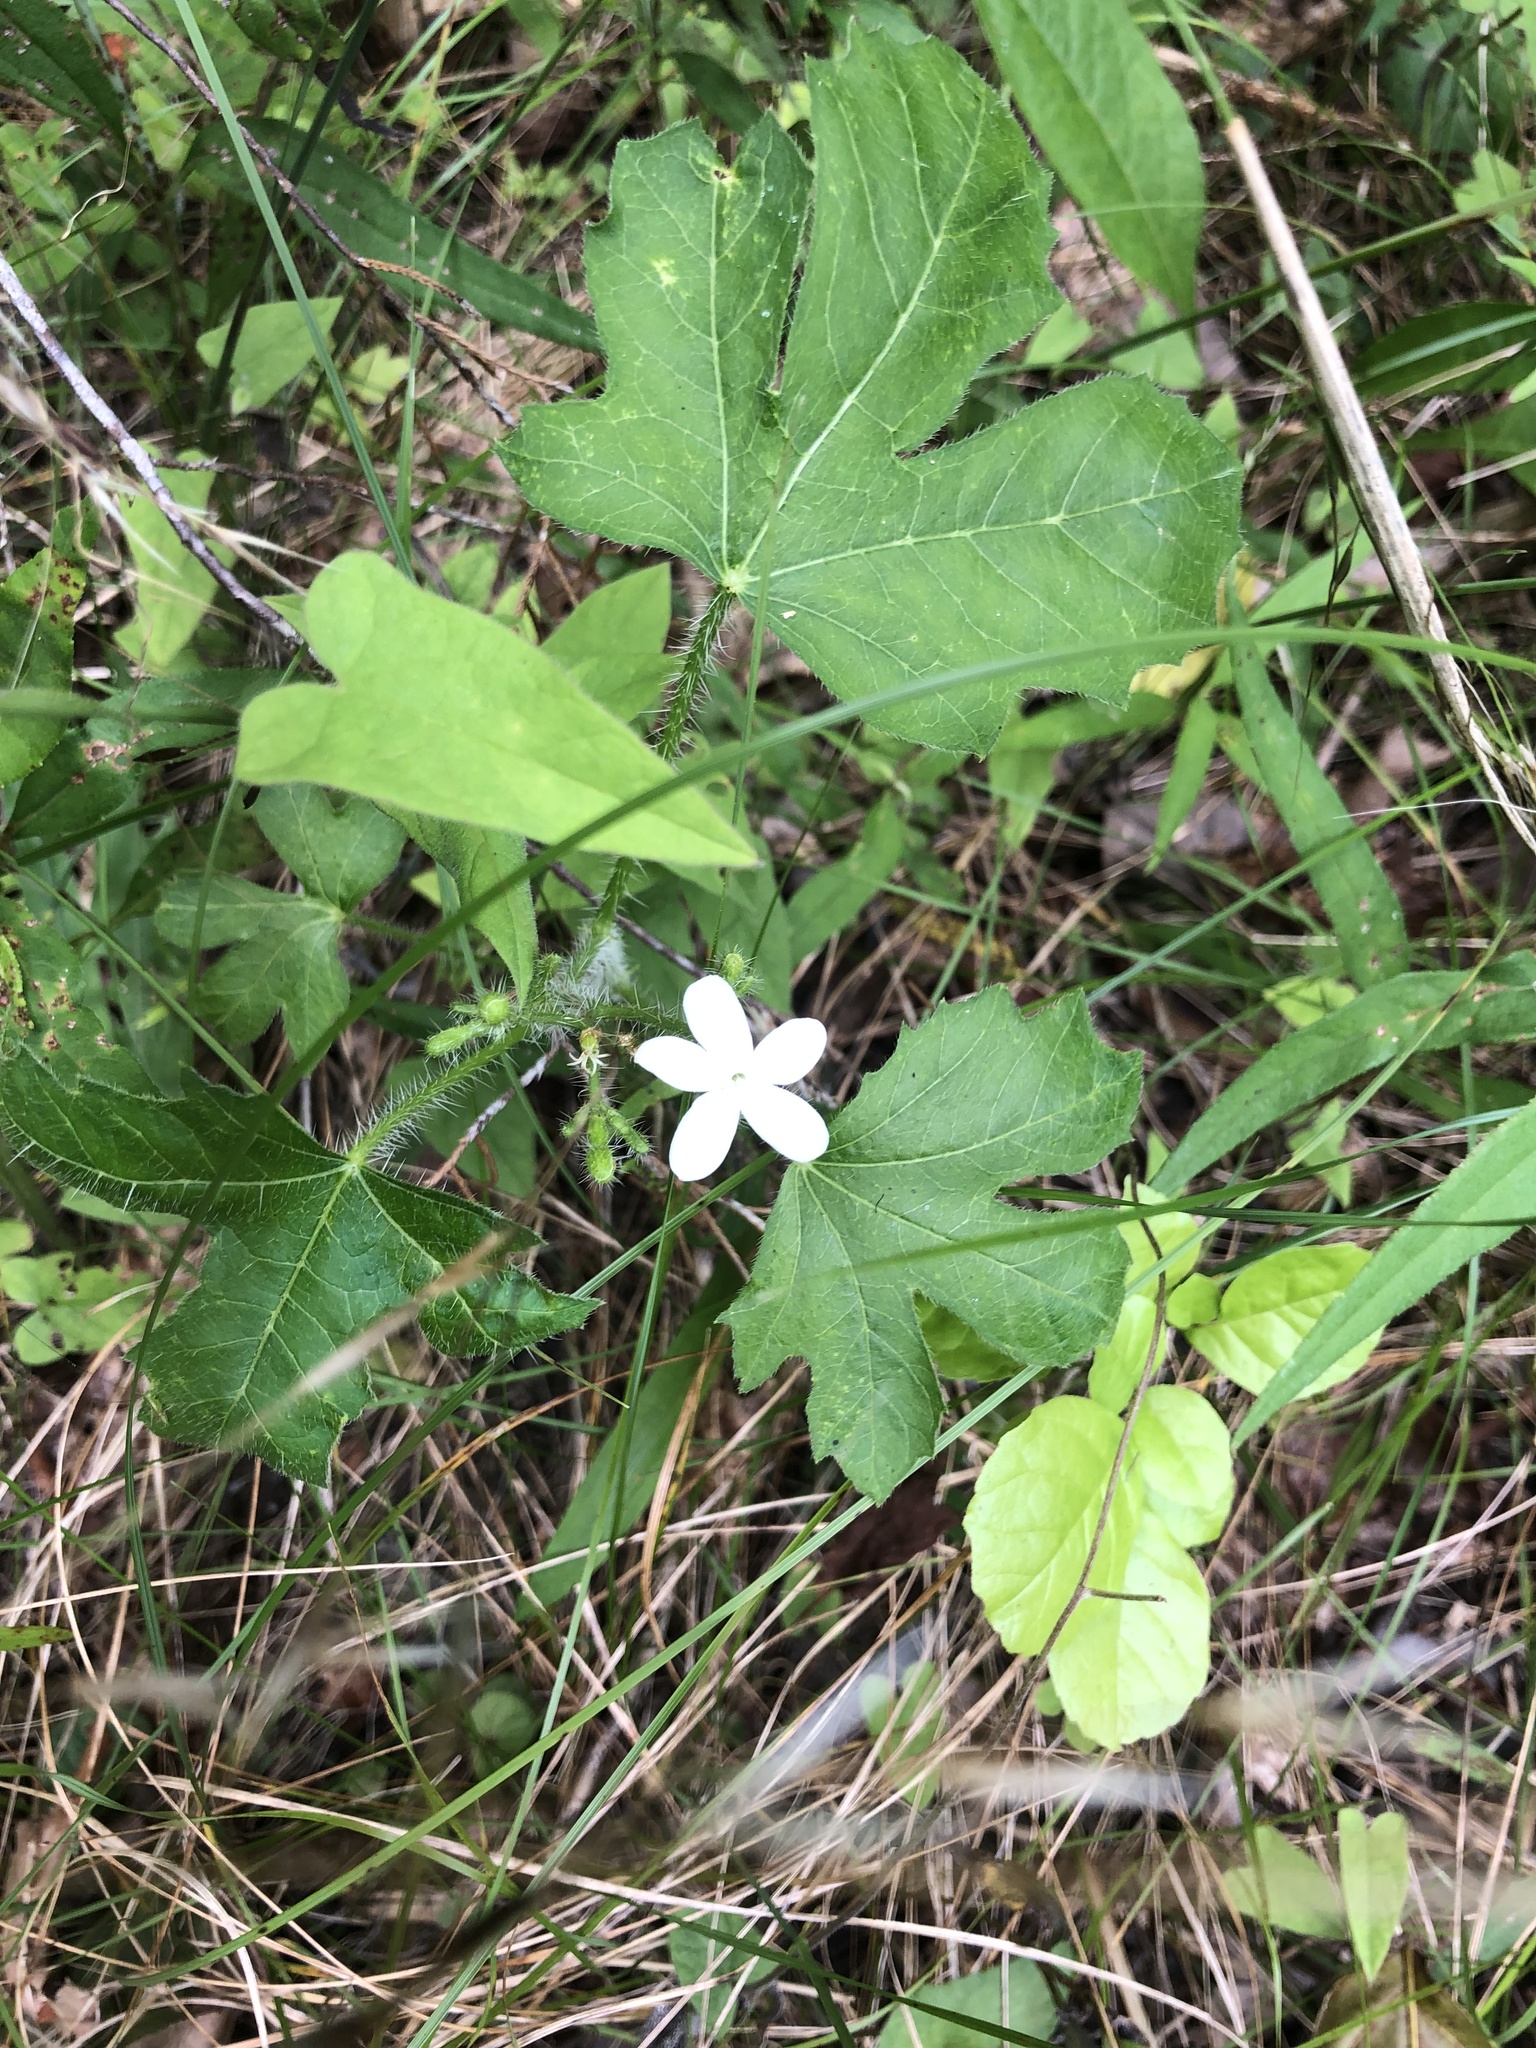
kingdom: Plantae
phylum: Tracheophyta
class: Magnoliopsida
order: Malpighiales
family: Euphorbiaceae
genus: Cnidoscolus
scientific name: Cnidoscolus stimulosus
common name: Bull-nettle
